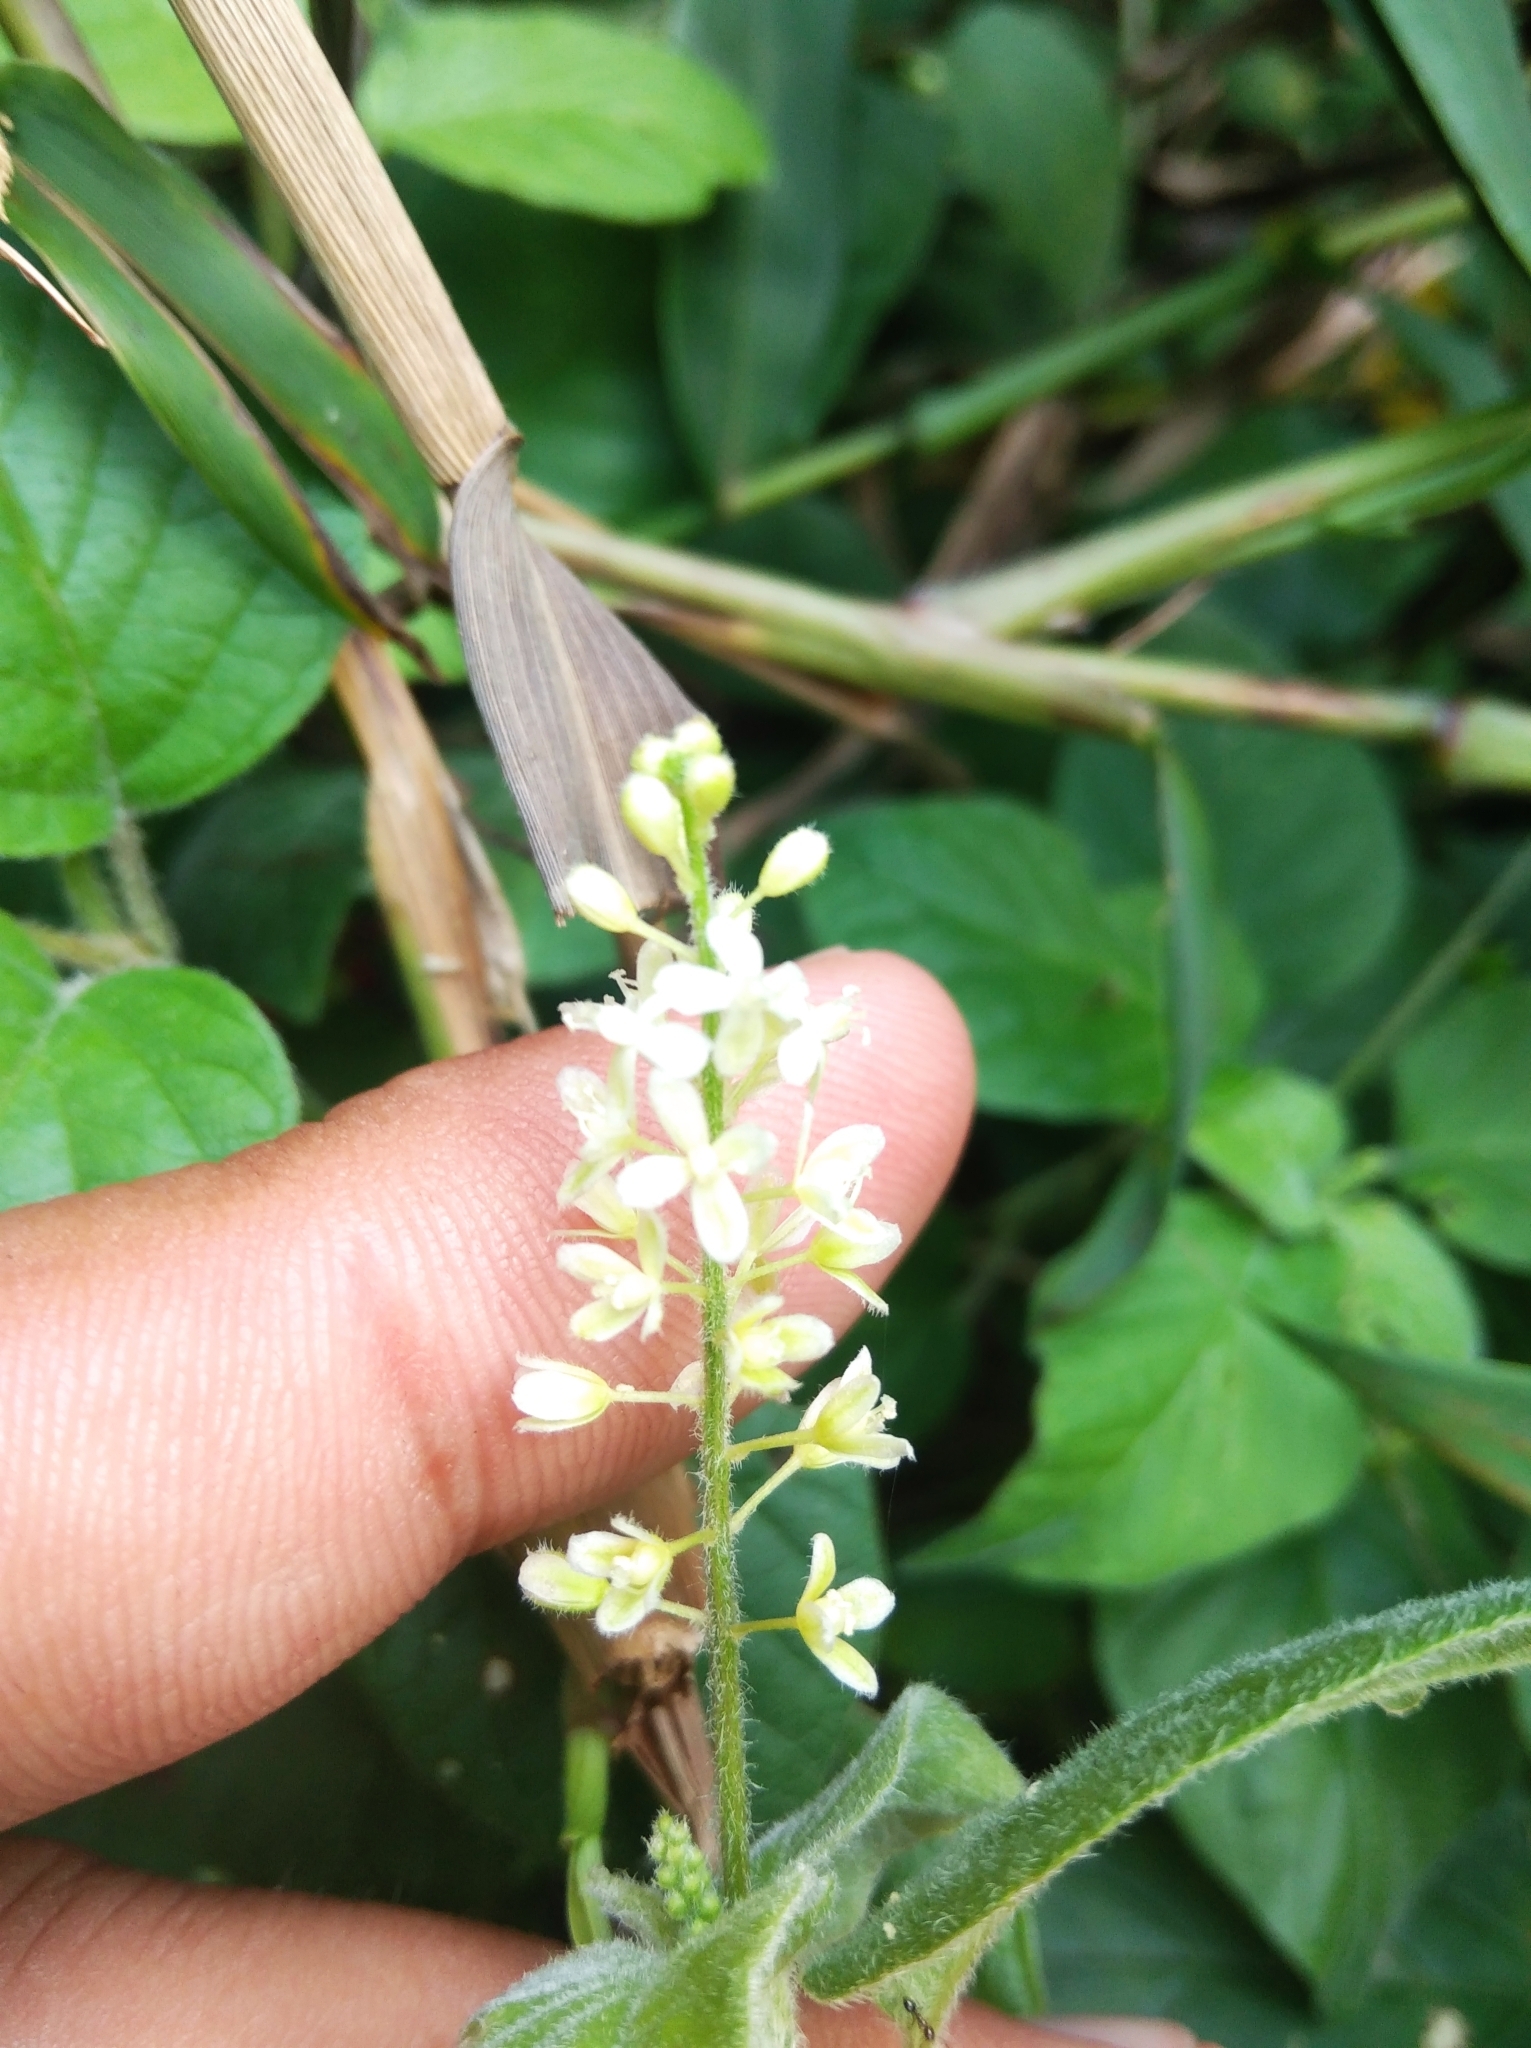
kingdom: Plantae
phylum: Tracheophyta
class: Magnoliopsida
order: Caryophyllales
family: Phytolaccaceae
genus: Rivina
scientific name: Rivina humilis
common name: Rougeplant
